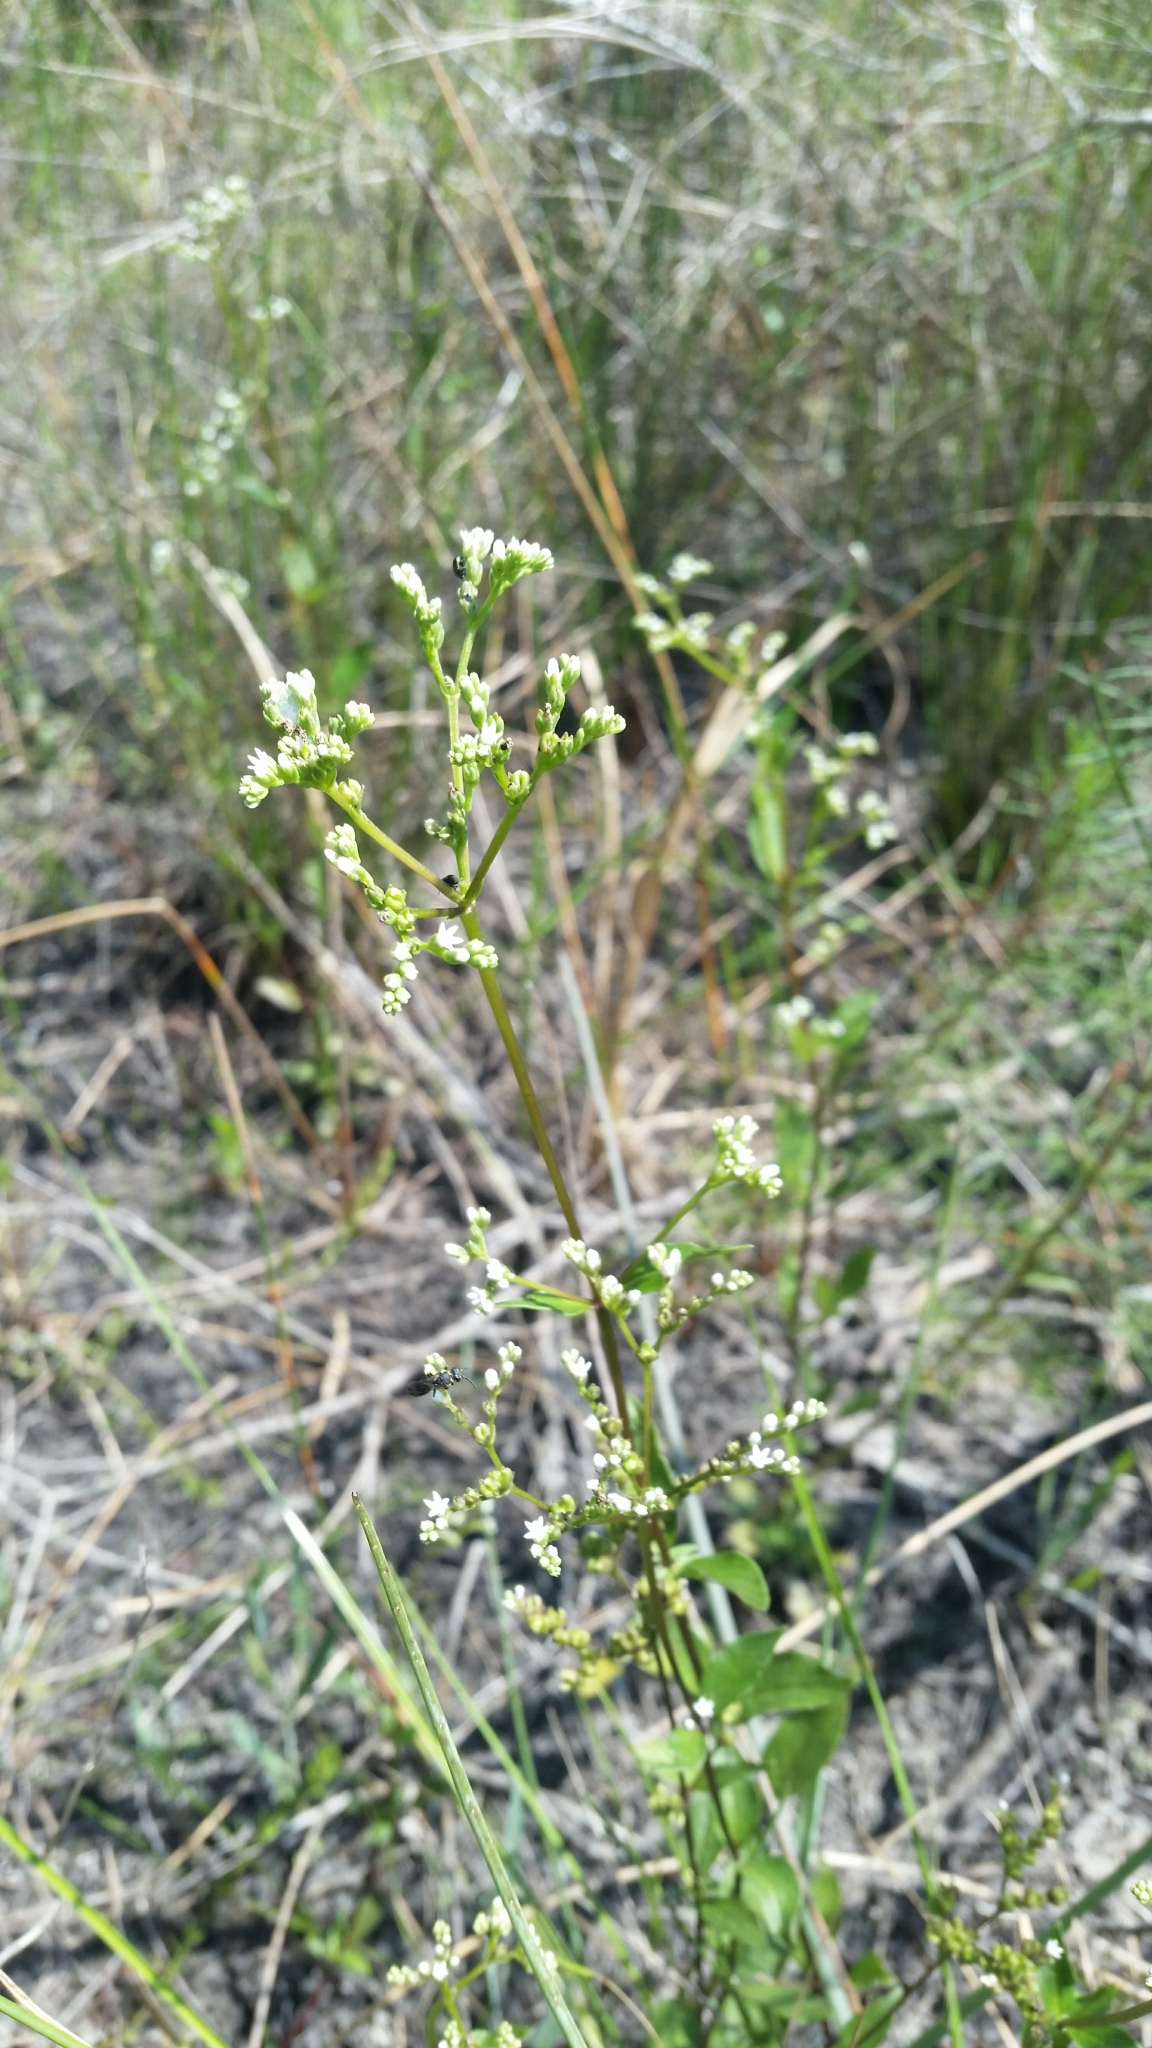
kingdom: Plantae
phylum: Tracheophyta
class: Magnoliopsida
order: Gentianales
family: Loganiaceae
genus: Mitreola
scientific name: Mitreola petiolata
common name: Lax hornpod
